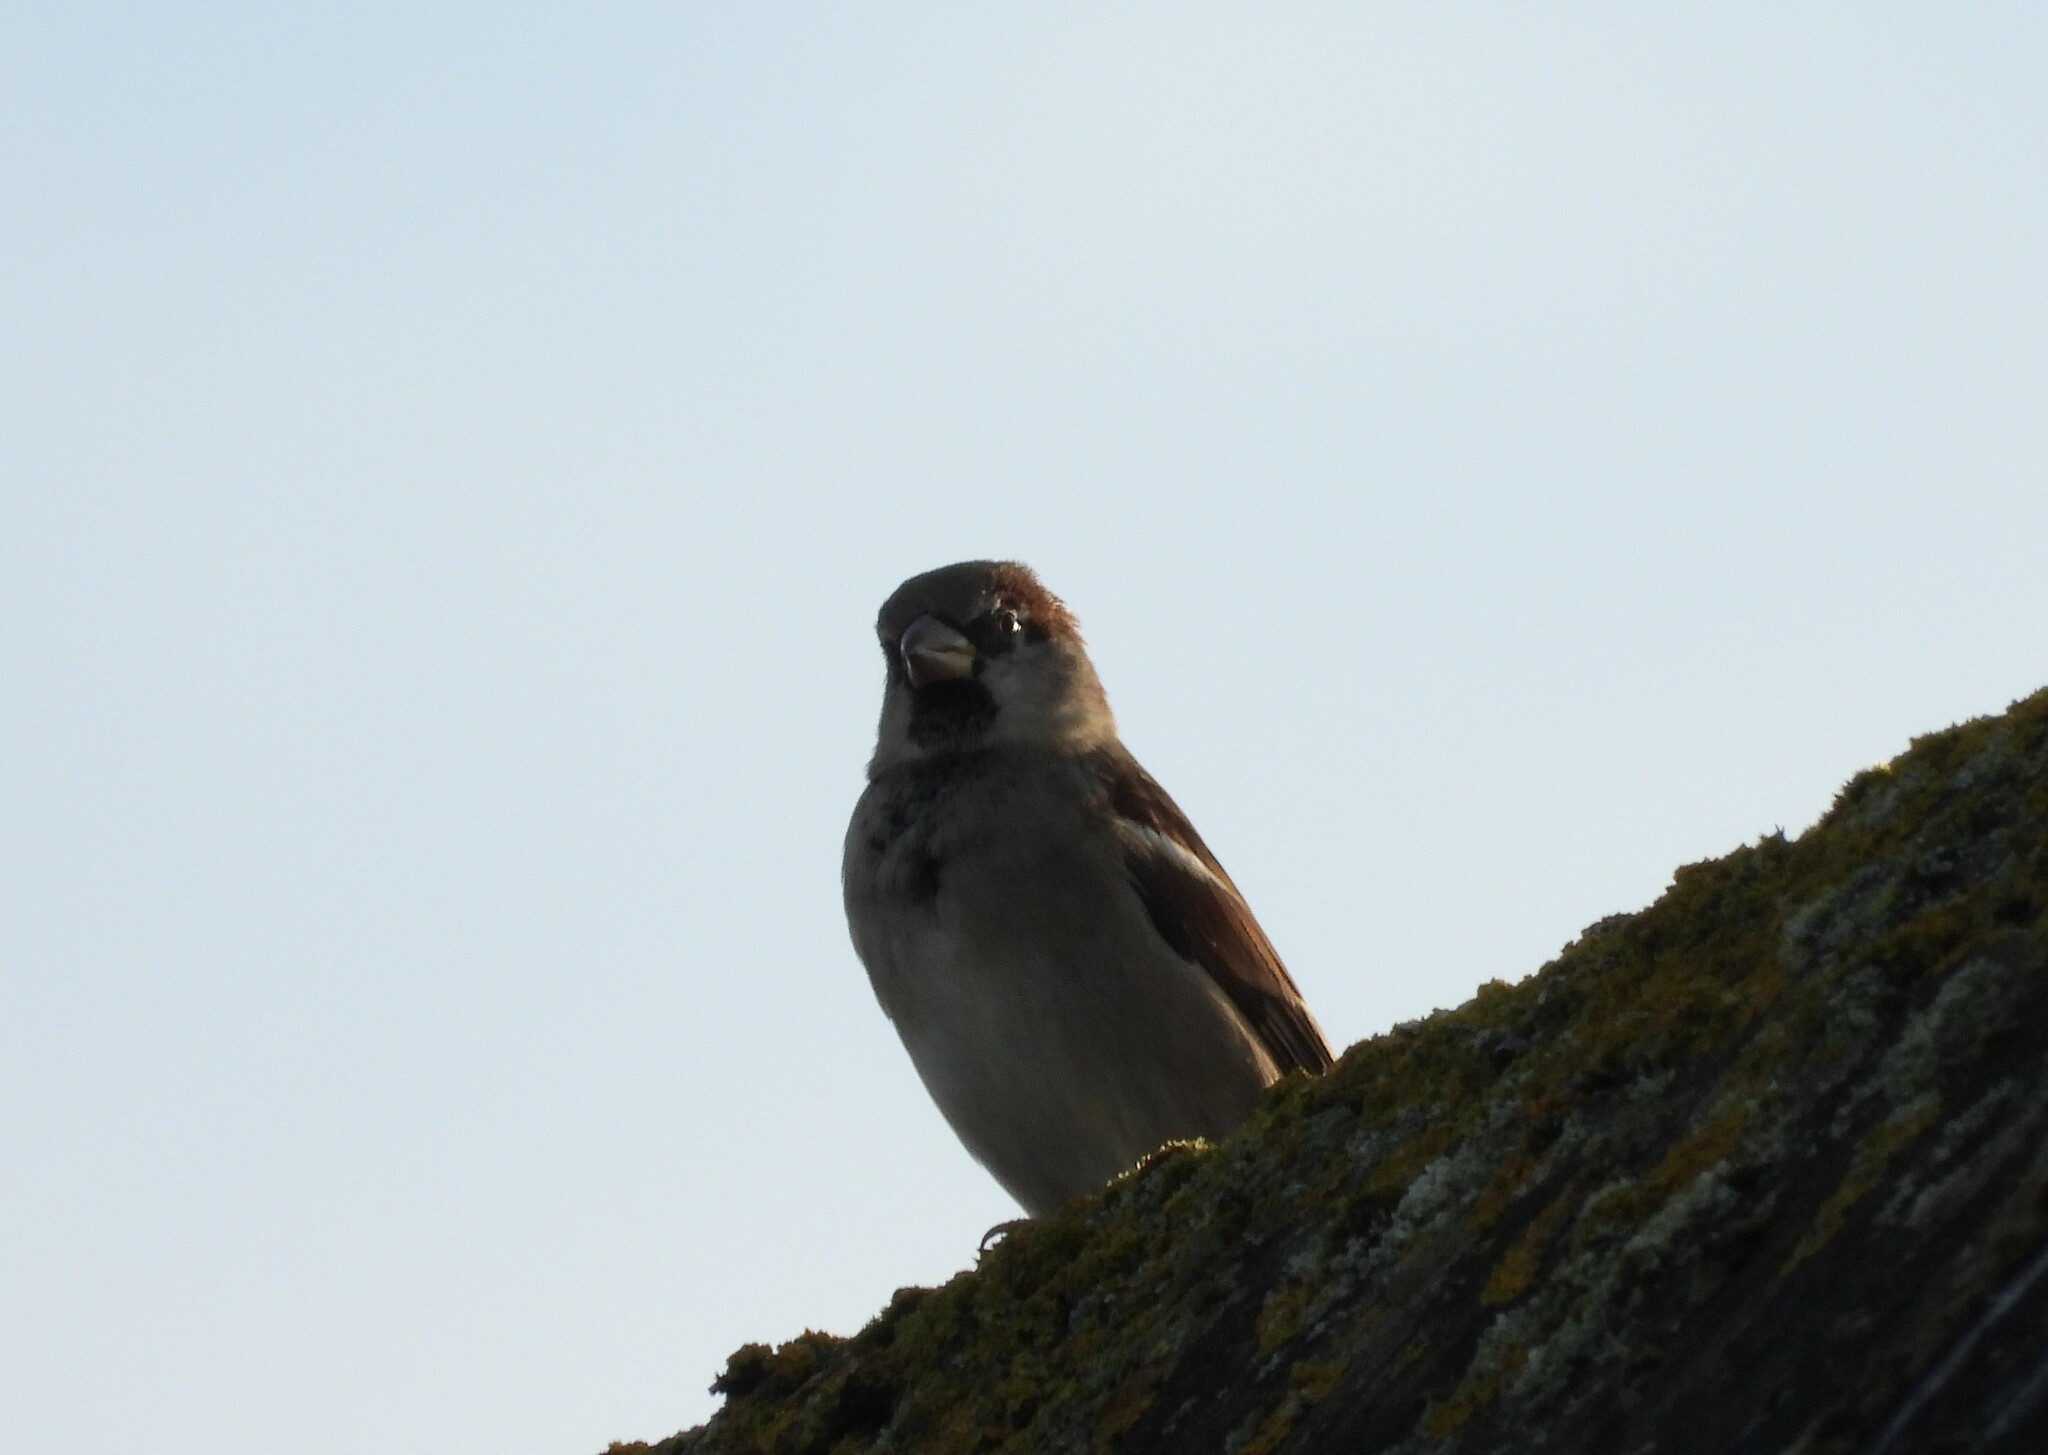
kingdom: Animalia
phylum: Chordata
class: Aves
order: Passeriformes
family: Passeridae
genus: Passer
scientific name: Passer domesticus
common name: House sparrow
